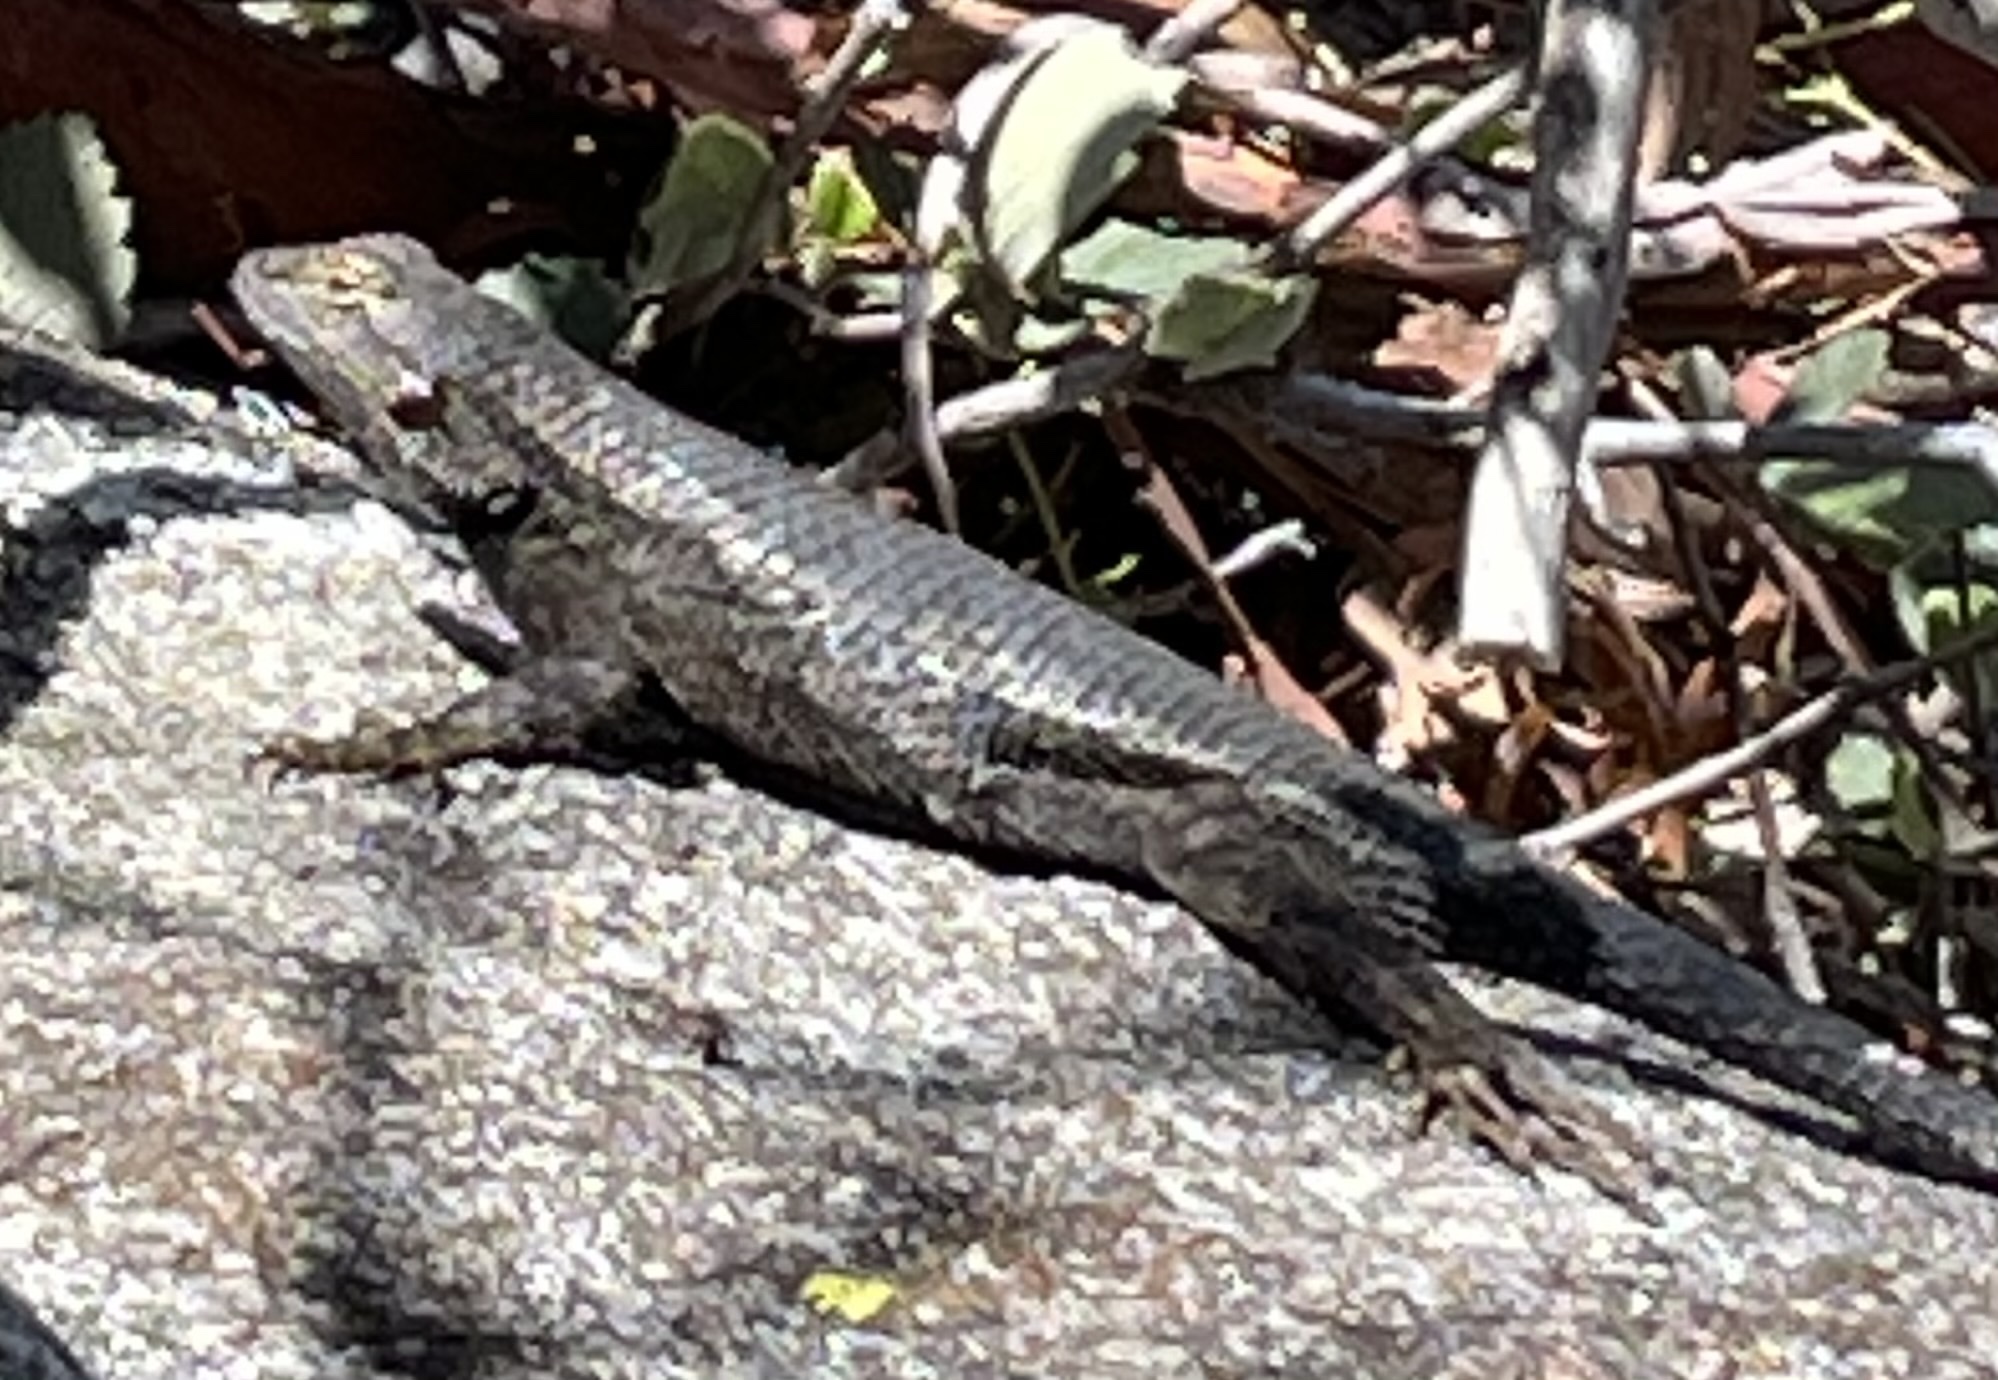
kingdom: Animalia
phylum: Chordata
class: Squamata
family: Phrynosomatidae
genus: Sceloporus
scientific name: Sceloporus occidentalis
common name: Western fence lizard
